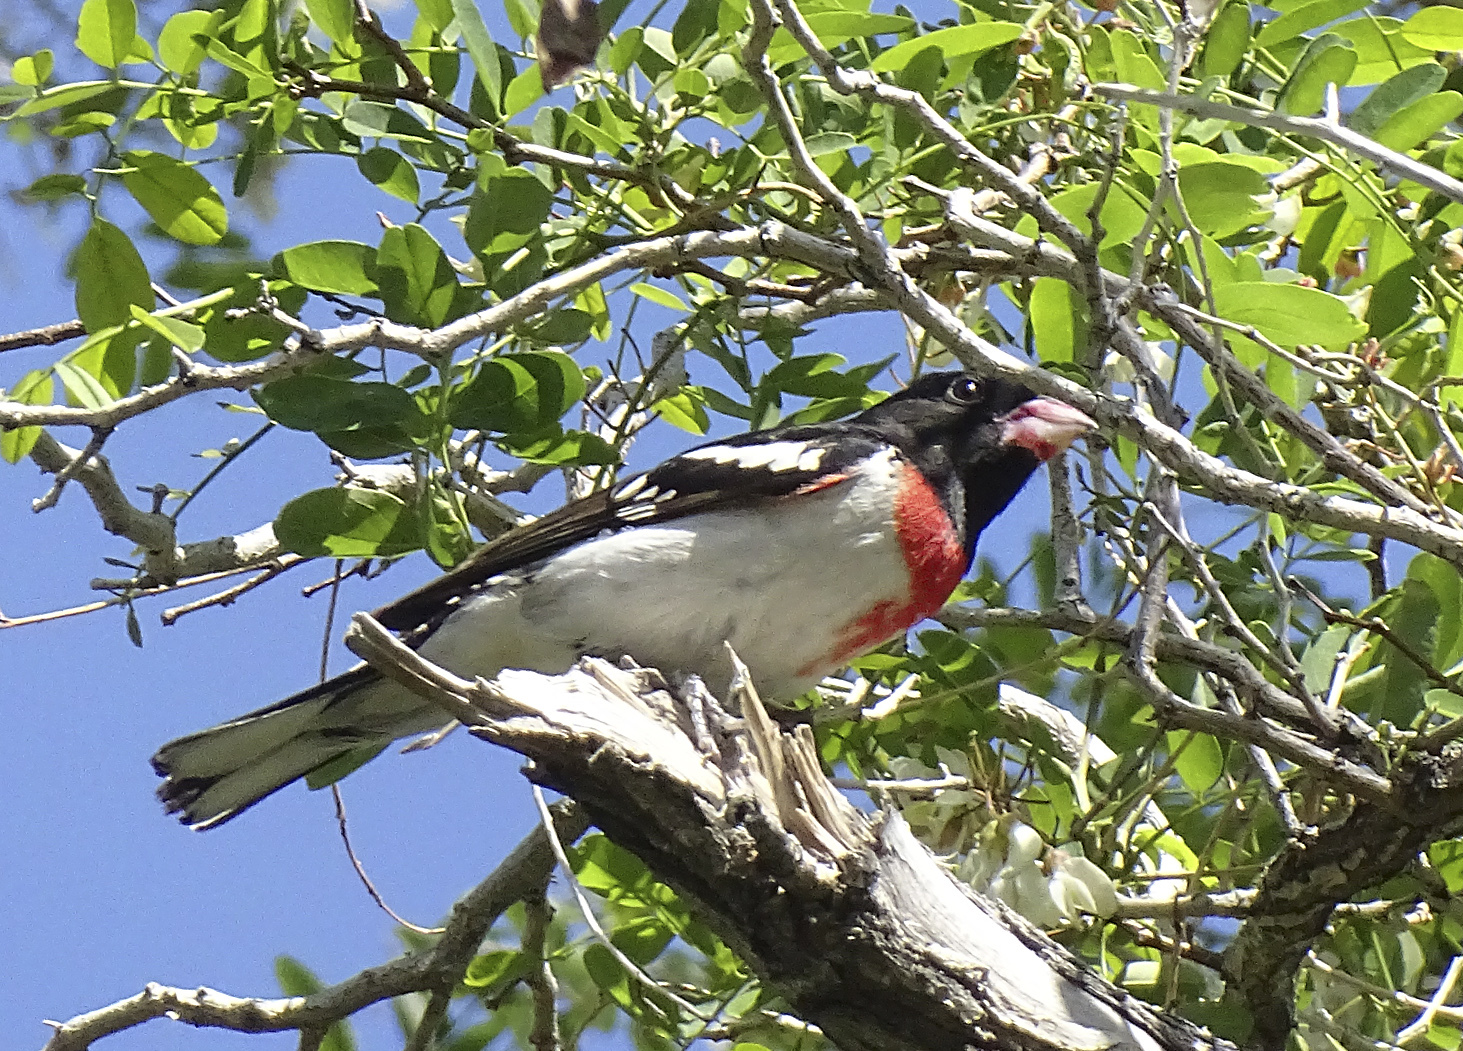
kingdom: Animalia
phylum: Chordata
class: Aves
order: Passeriformes
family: Cardinalidae
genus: Pheucticus
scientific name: Pheucticus ludovicianus
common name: Rose-breasted grosbeak
